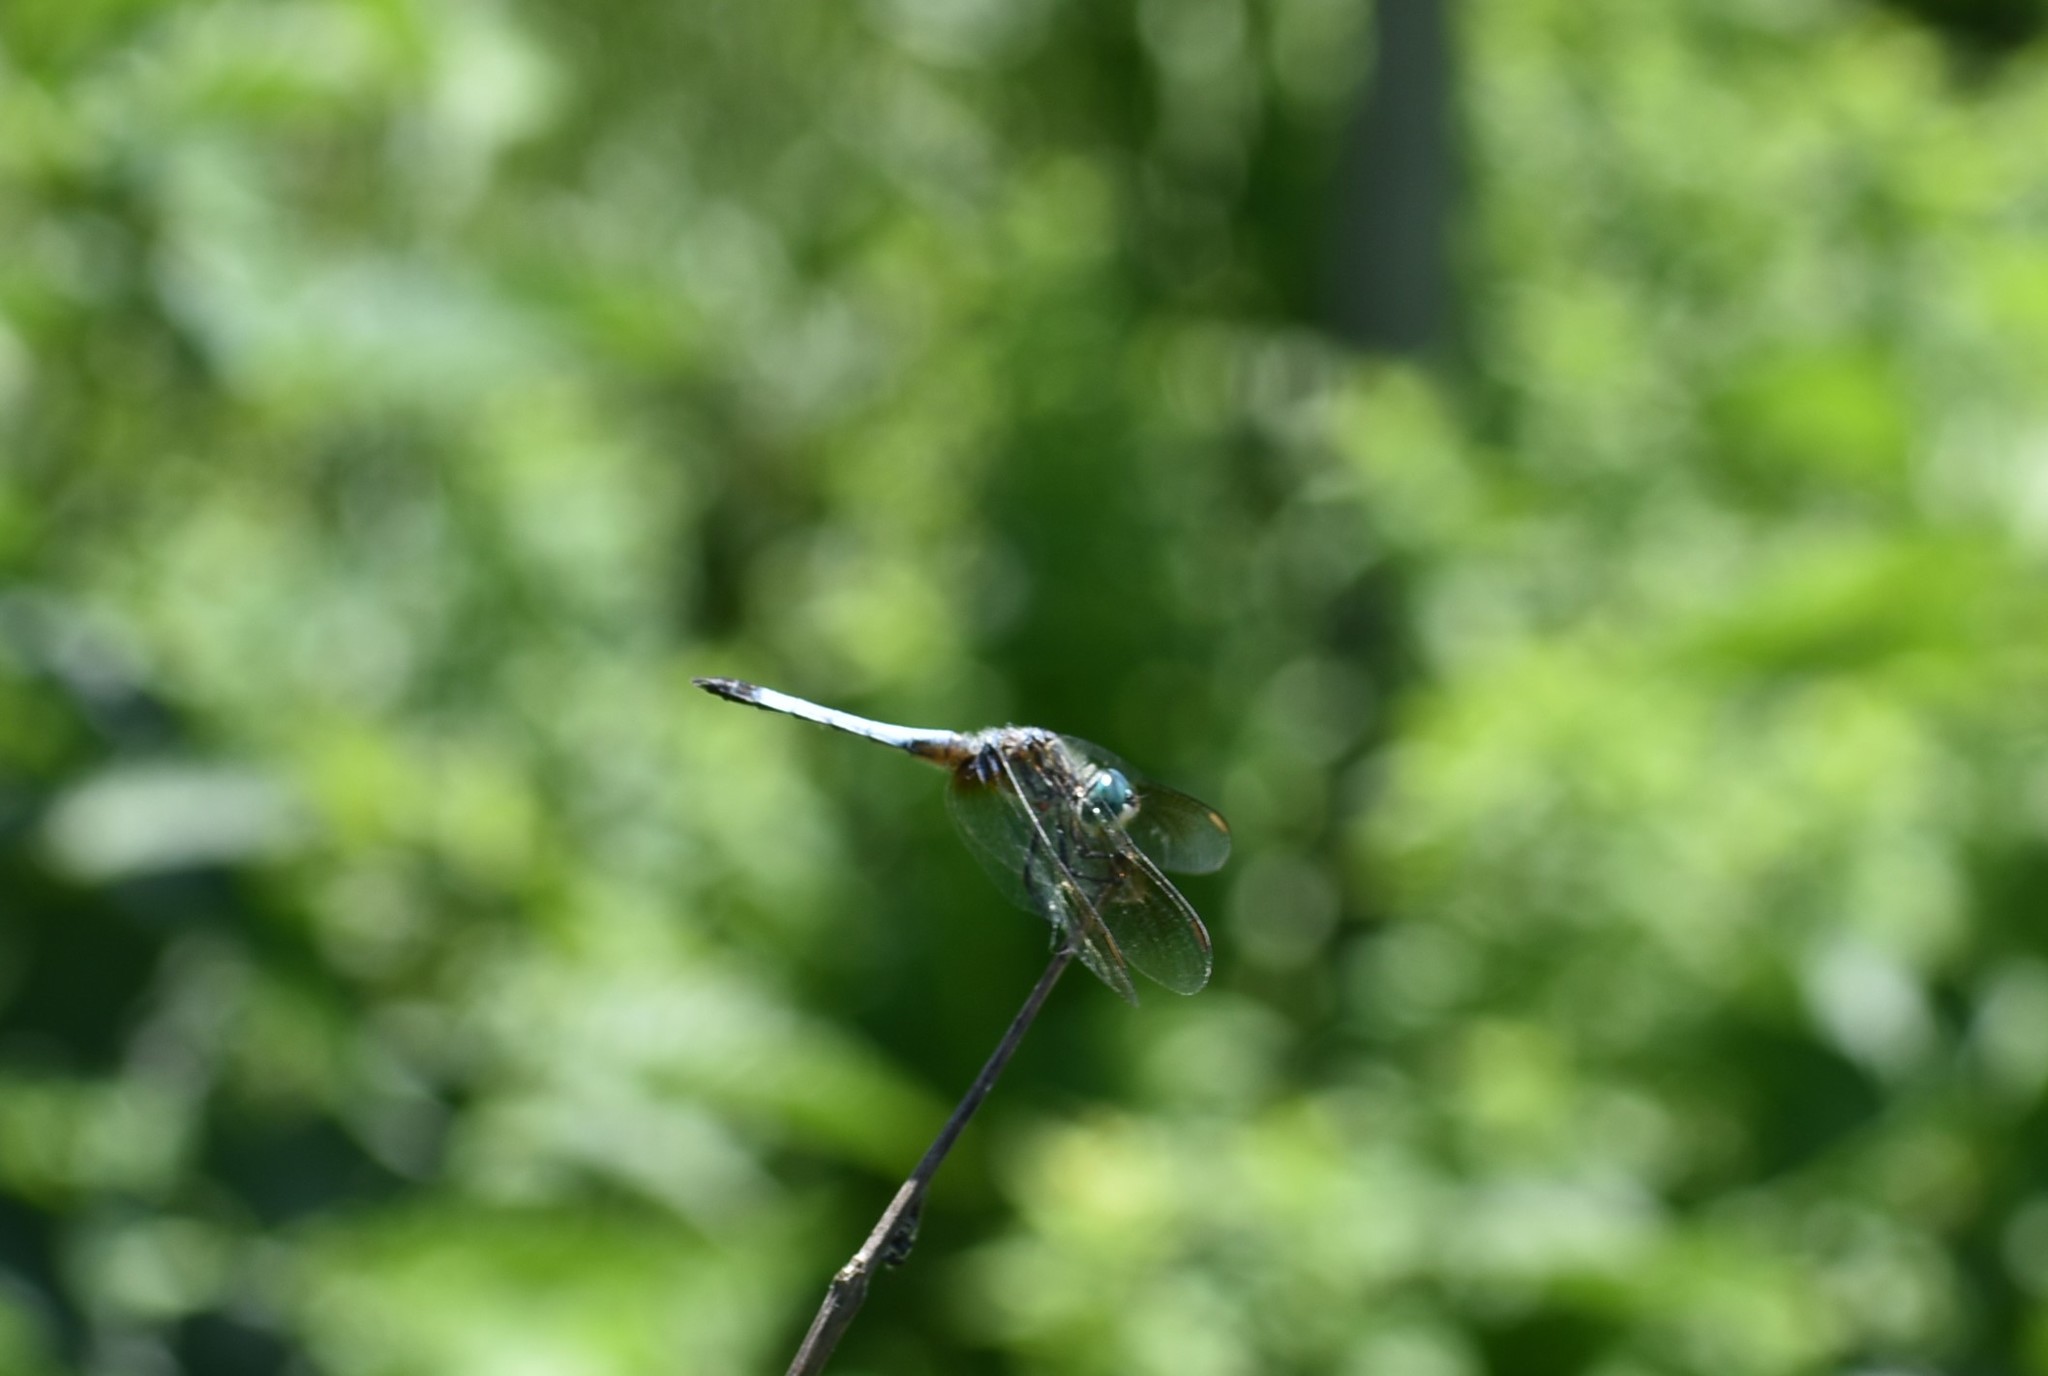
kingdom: Animalia
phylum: Arthropoda
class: Insecta
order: Odonata
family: Libellulidae
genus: Pachydiplax
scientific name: Pachydiplax longipennis
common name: Blue dasher
